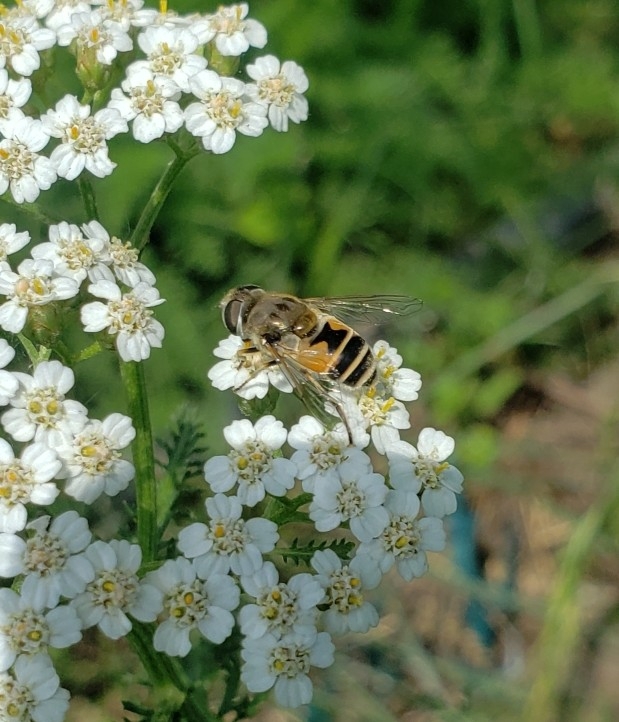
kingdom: Animalia
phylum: Arthropoda
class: Insecta
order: Diptera
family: Syrphidae
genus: Eristalis
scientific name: Eristalis arbustorum
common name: Hover fly
